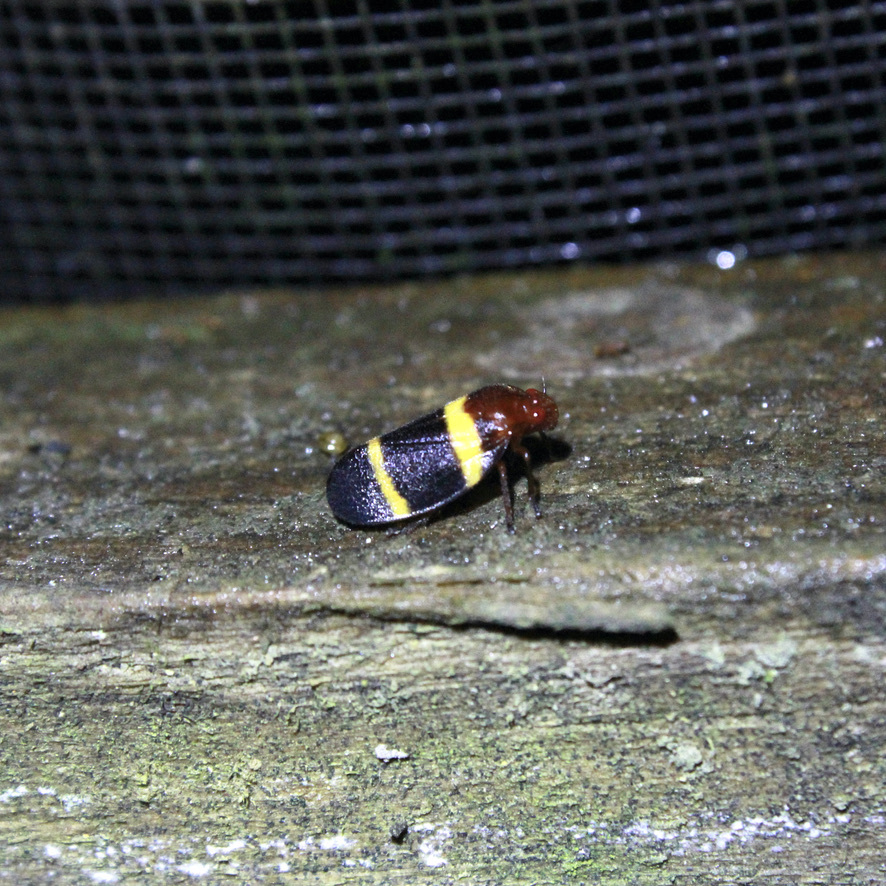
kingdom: Animalia
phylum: Arthropoda
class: Insecta
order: Hemiptera
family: Cercopidae
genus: Sphenorhina
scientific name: Sphenorhina rubra
